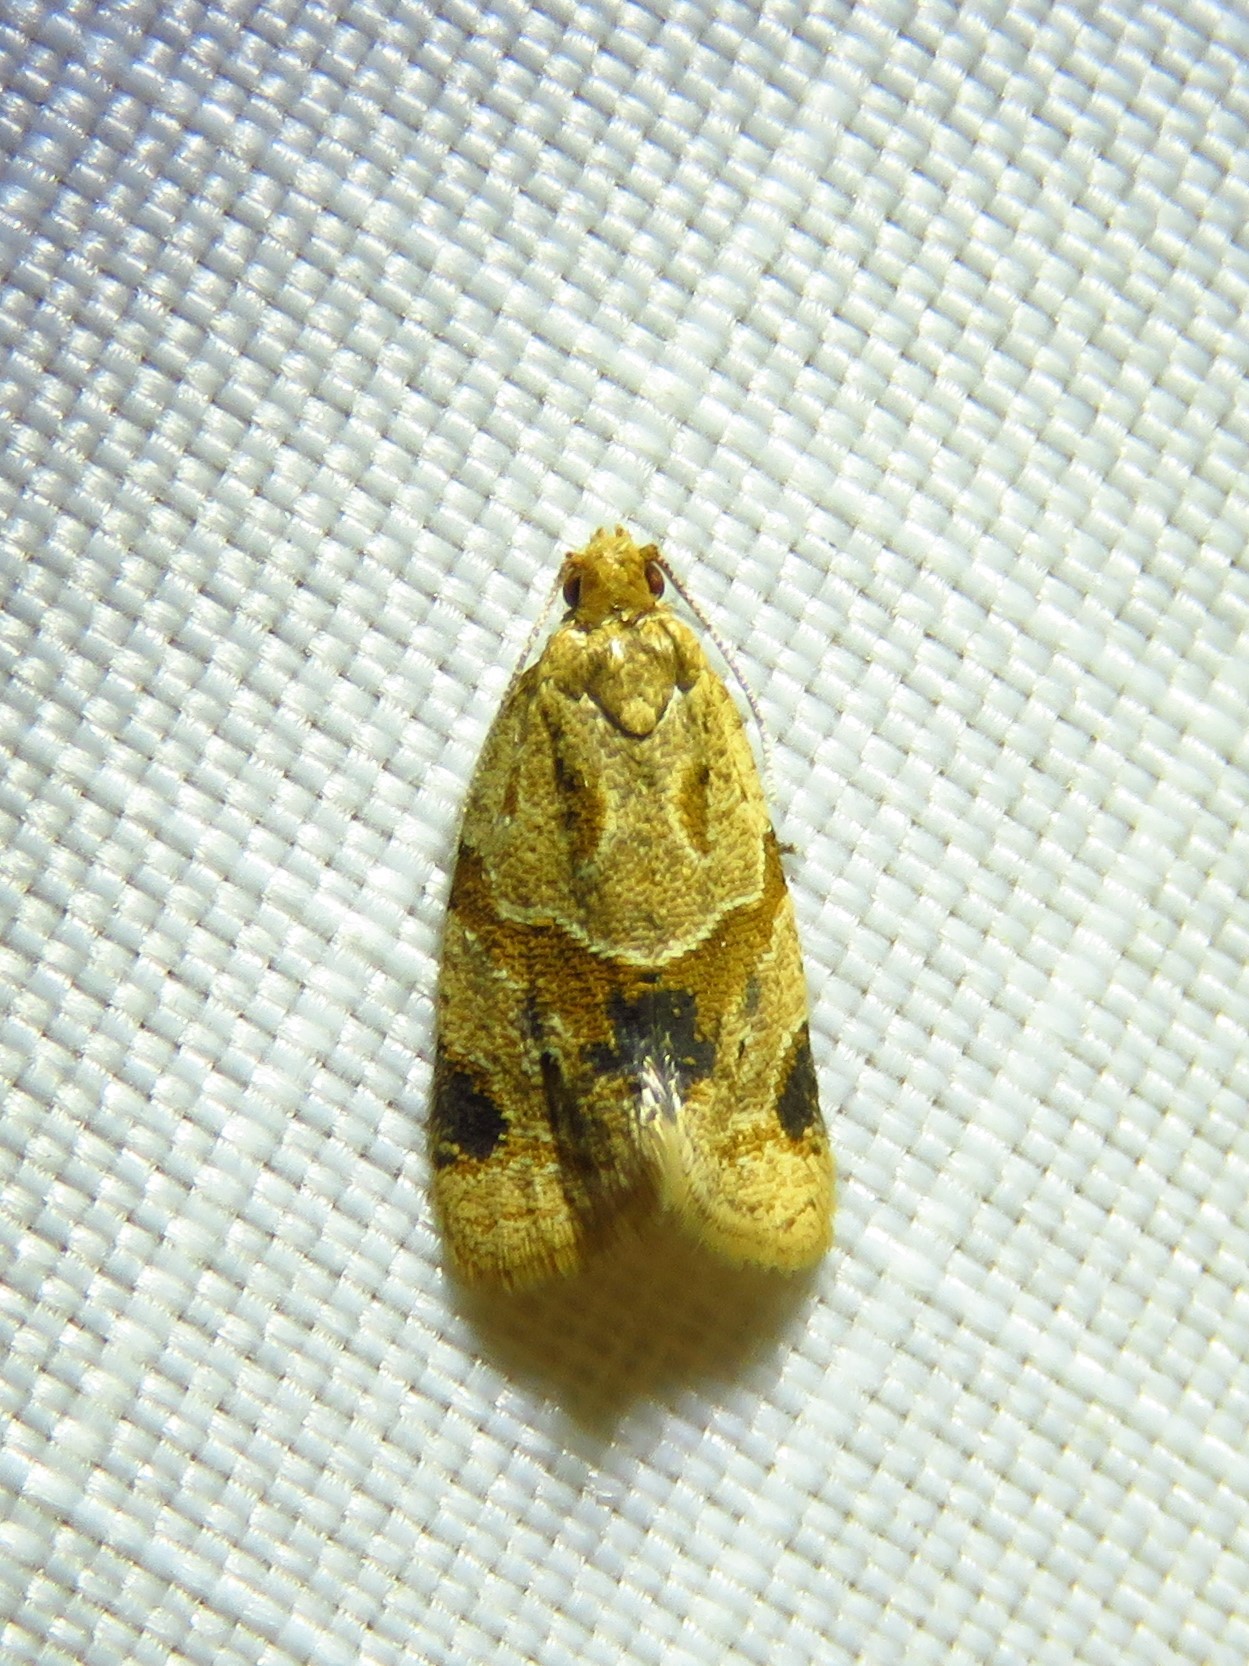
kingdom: Animalia
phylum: Arthropoda
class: Insecta
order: Lepidoptera
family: Tortricidae
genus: Clepsis
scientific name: Clepsis peritana
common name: Garden tortrix
